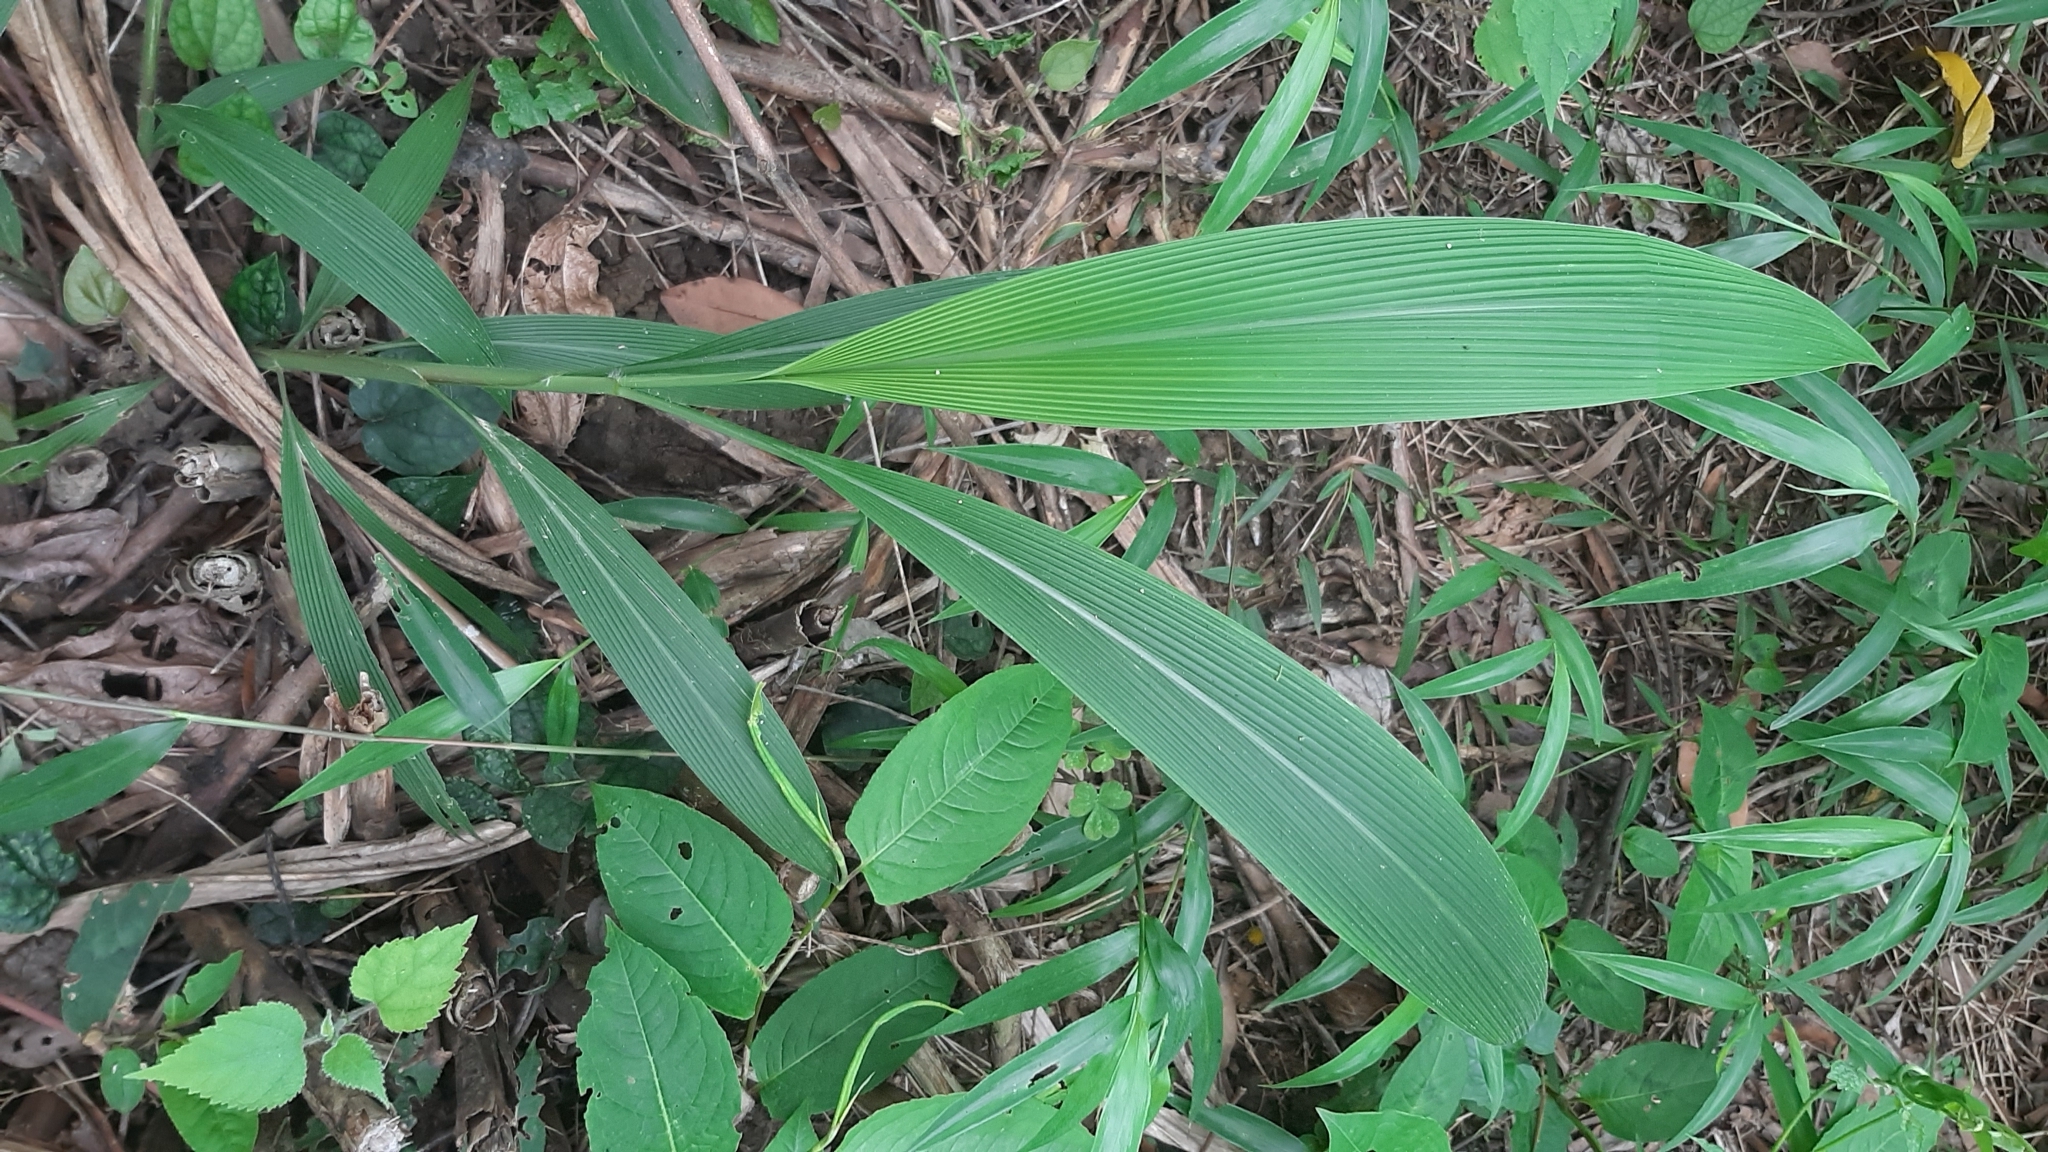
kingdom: Plantae
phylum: Tracheophyta
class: Liliopsida
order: Poales
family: Poaceae
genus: Setaria
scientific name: Setaria palmifolia
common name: Broadleaved bristlegrass
